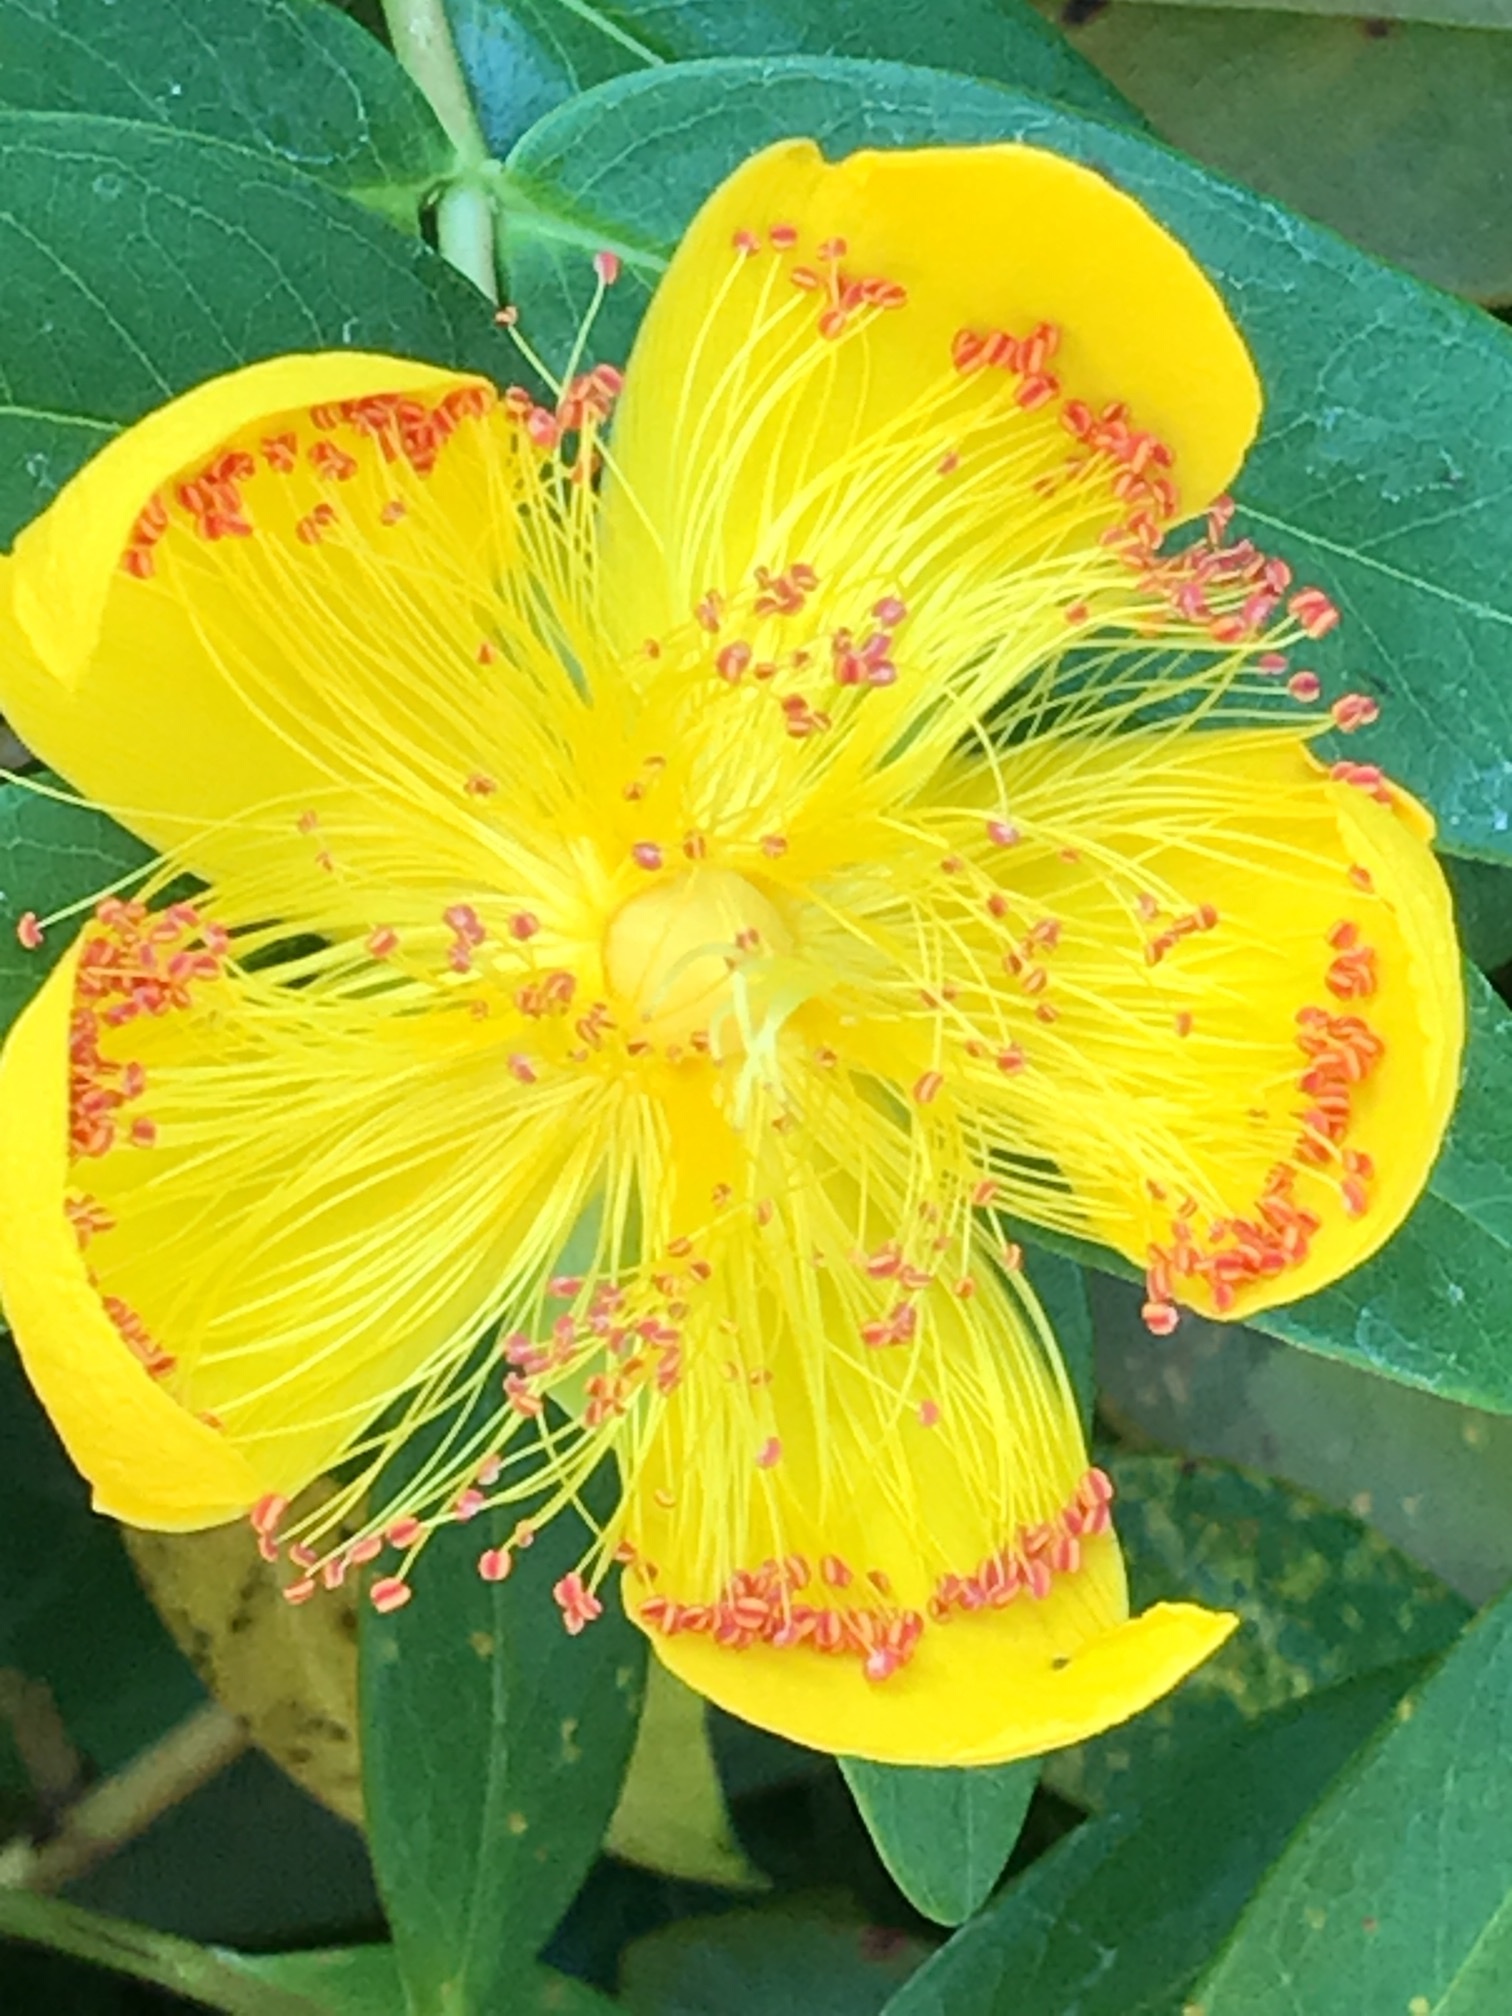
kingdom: Plantae
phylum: Tracheophyta
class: Magnoliopsida
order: Malpighiales
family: Hypericaceae
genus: Hypericum
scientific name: Hypericum calycinum
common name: Rose-of-sharon
